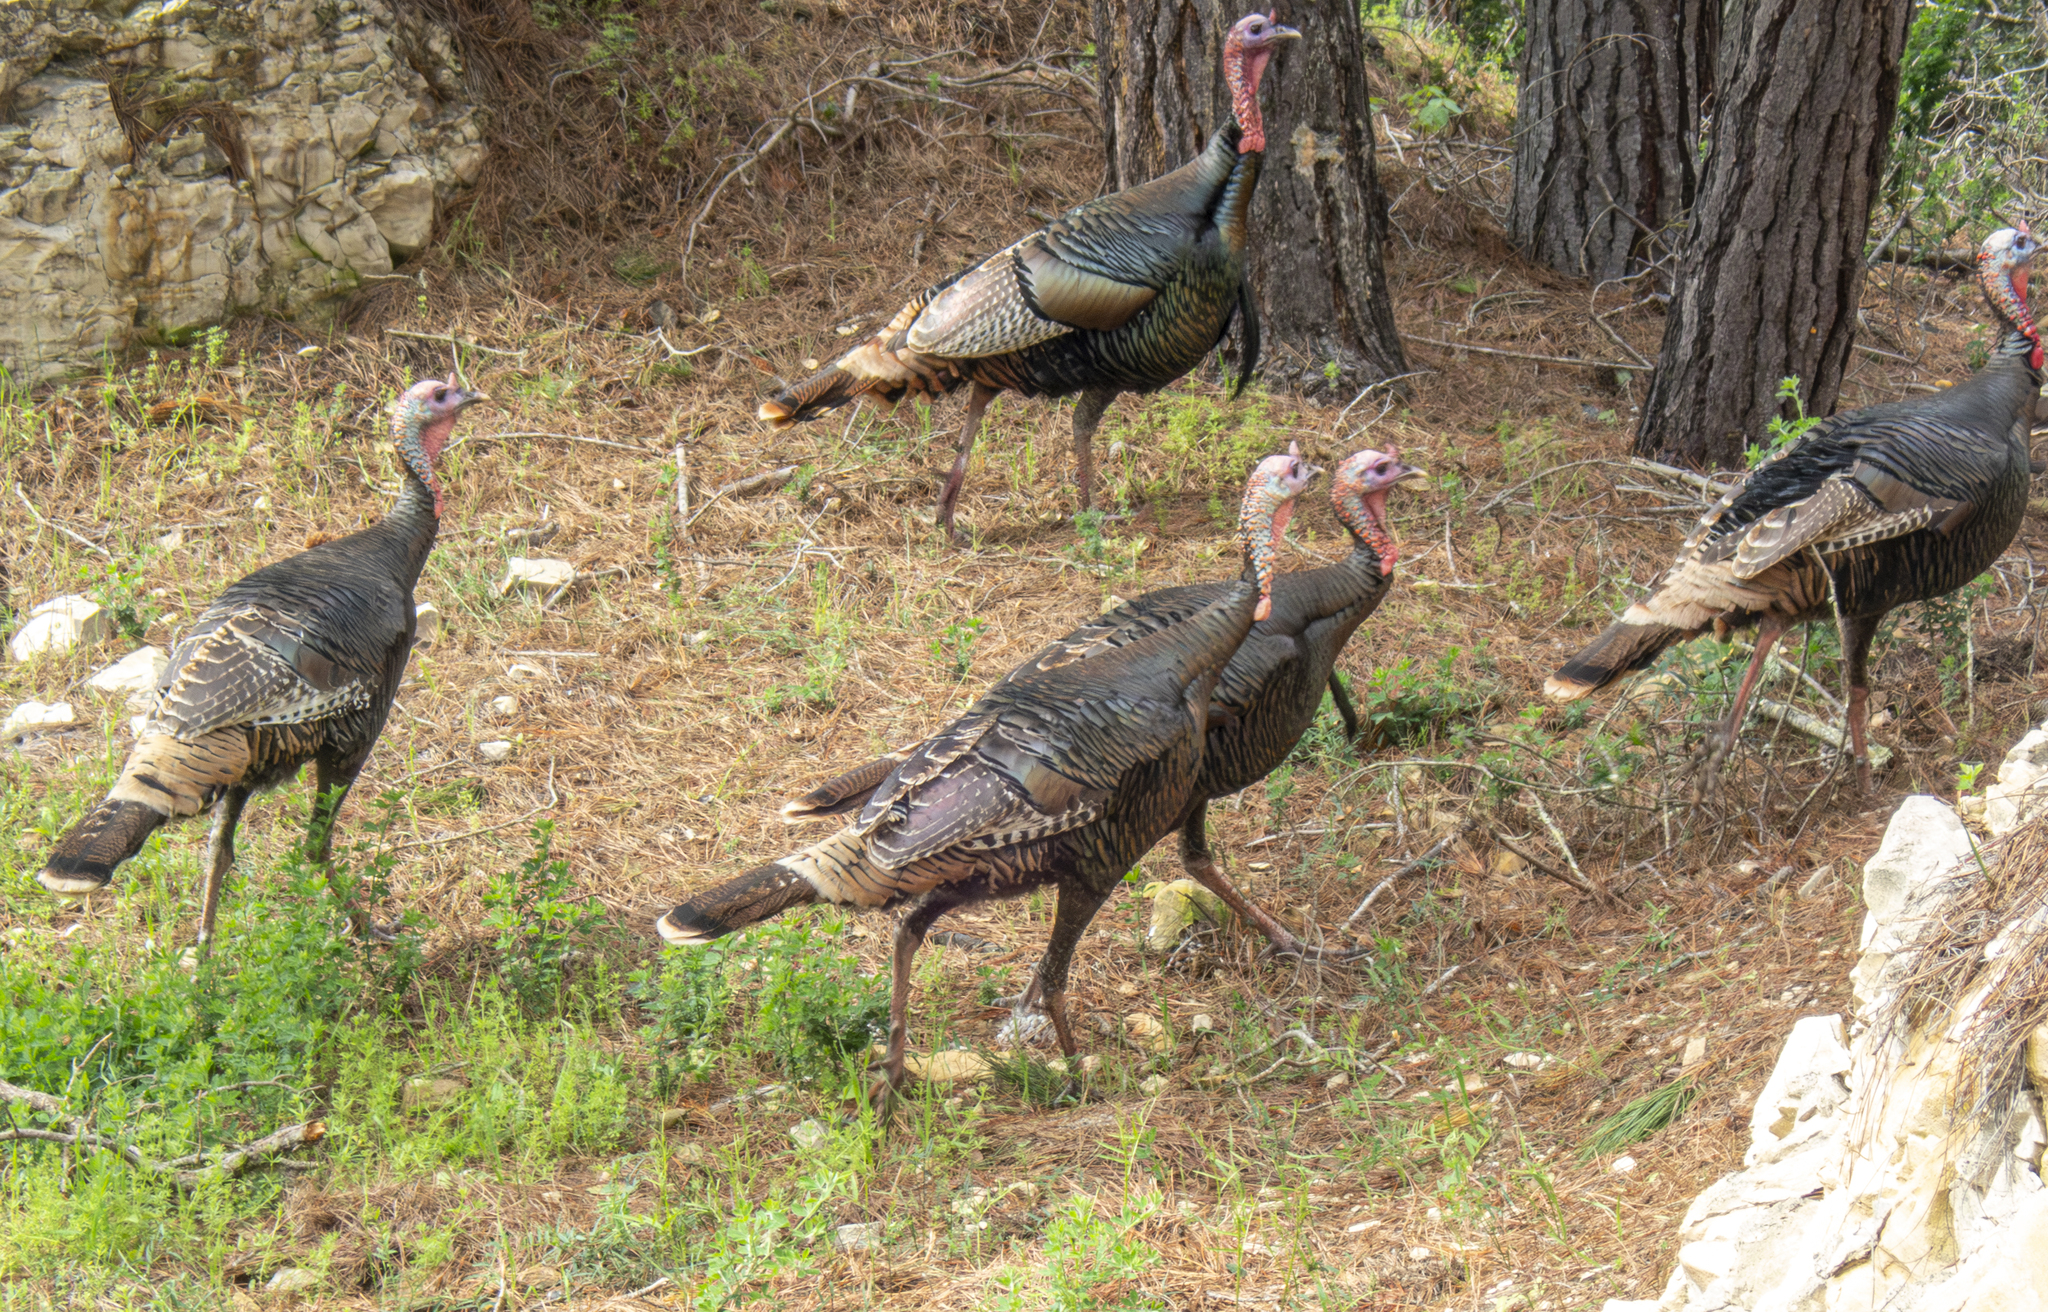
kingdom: Animalia
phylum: Chordata
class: Aves
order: Galliformes
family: Phasianidae
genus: Meleagris
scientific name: Meleagris gallopavo
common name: Wild turkey
